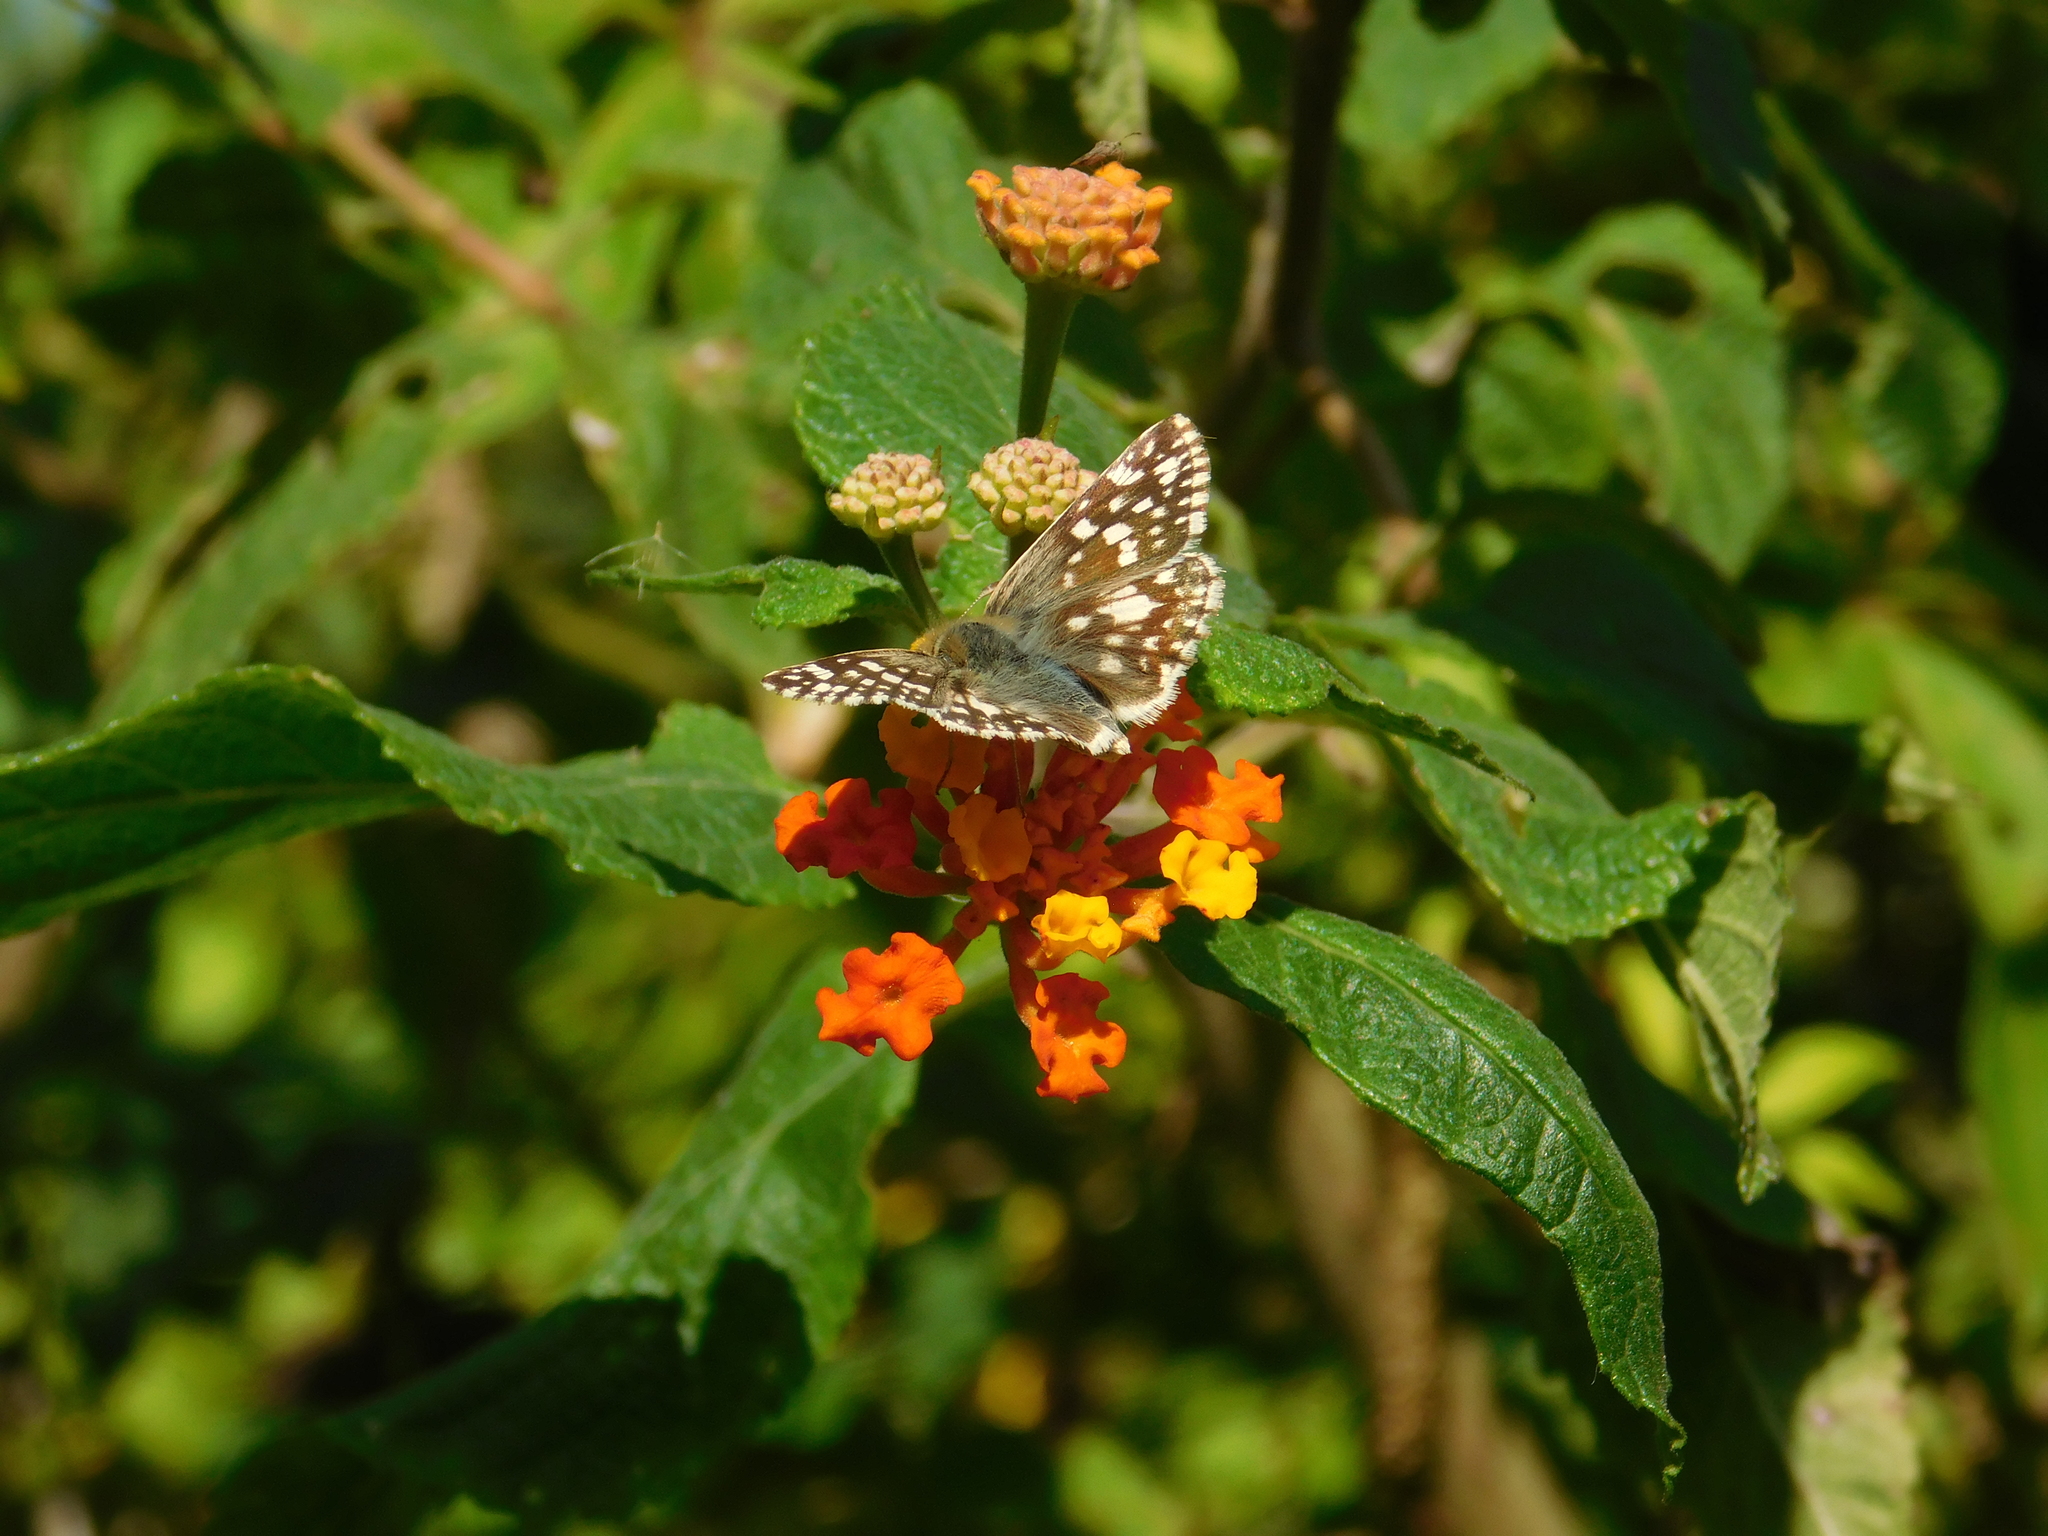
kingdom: Animalia
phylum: Arthropoda
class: Insecta
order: Lepidoptera
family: Hesperiidae
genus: Heliopetes
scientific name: Heliopetes americanus
